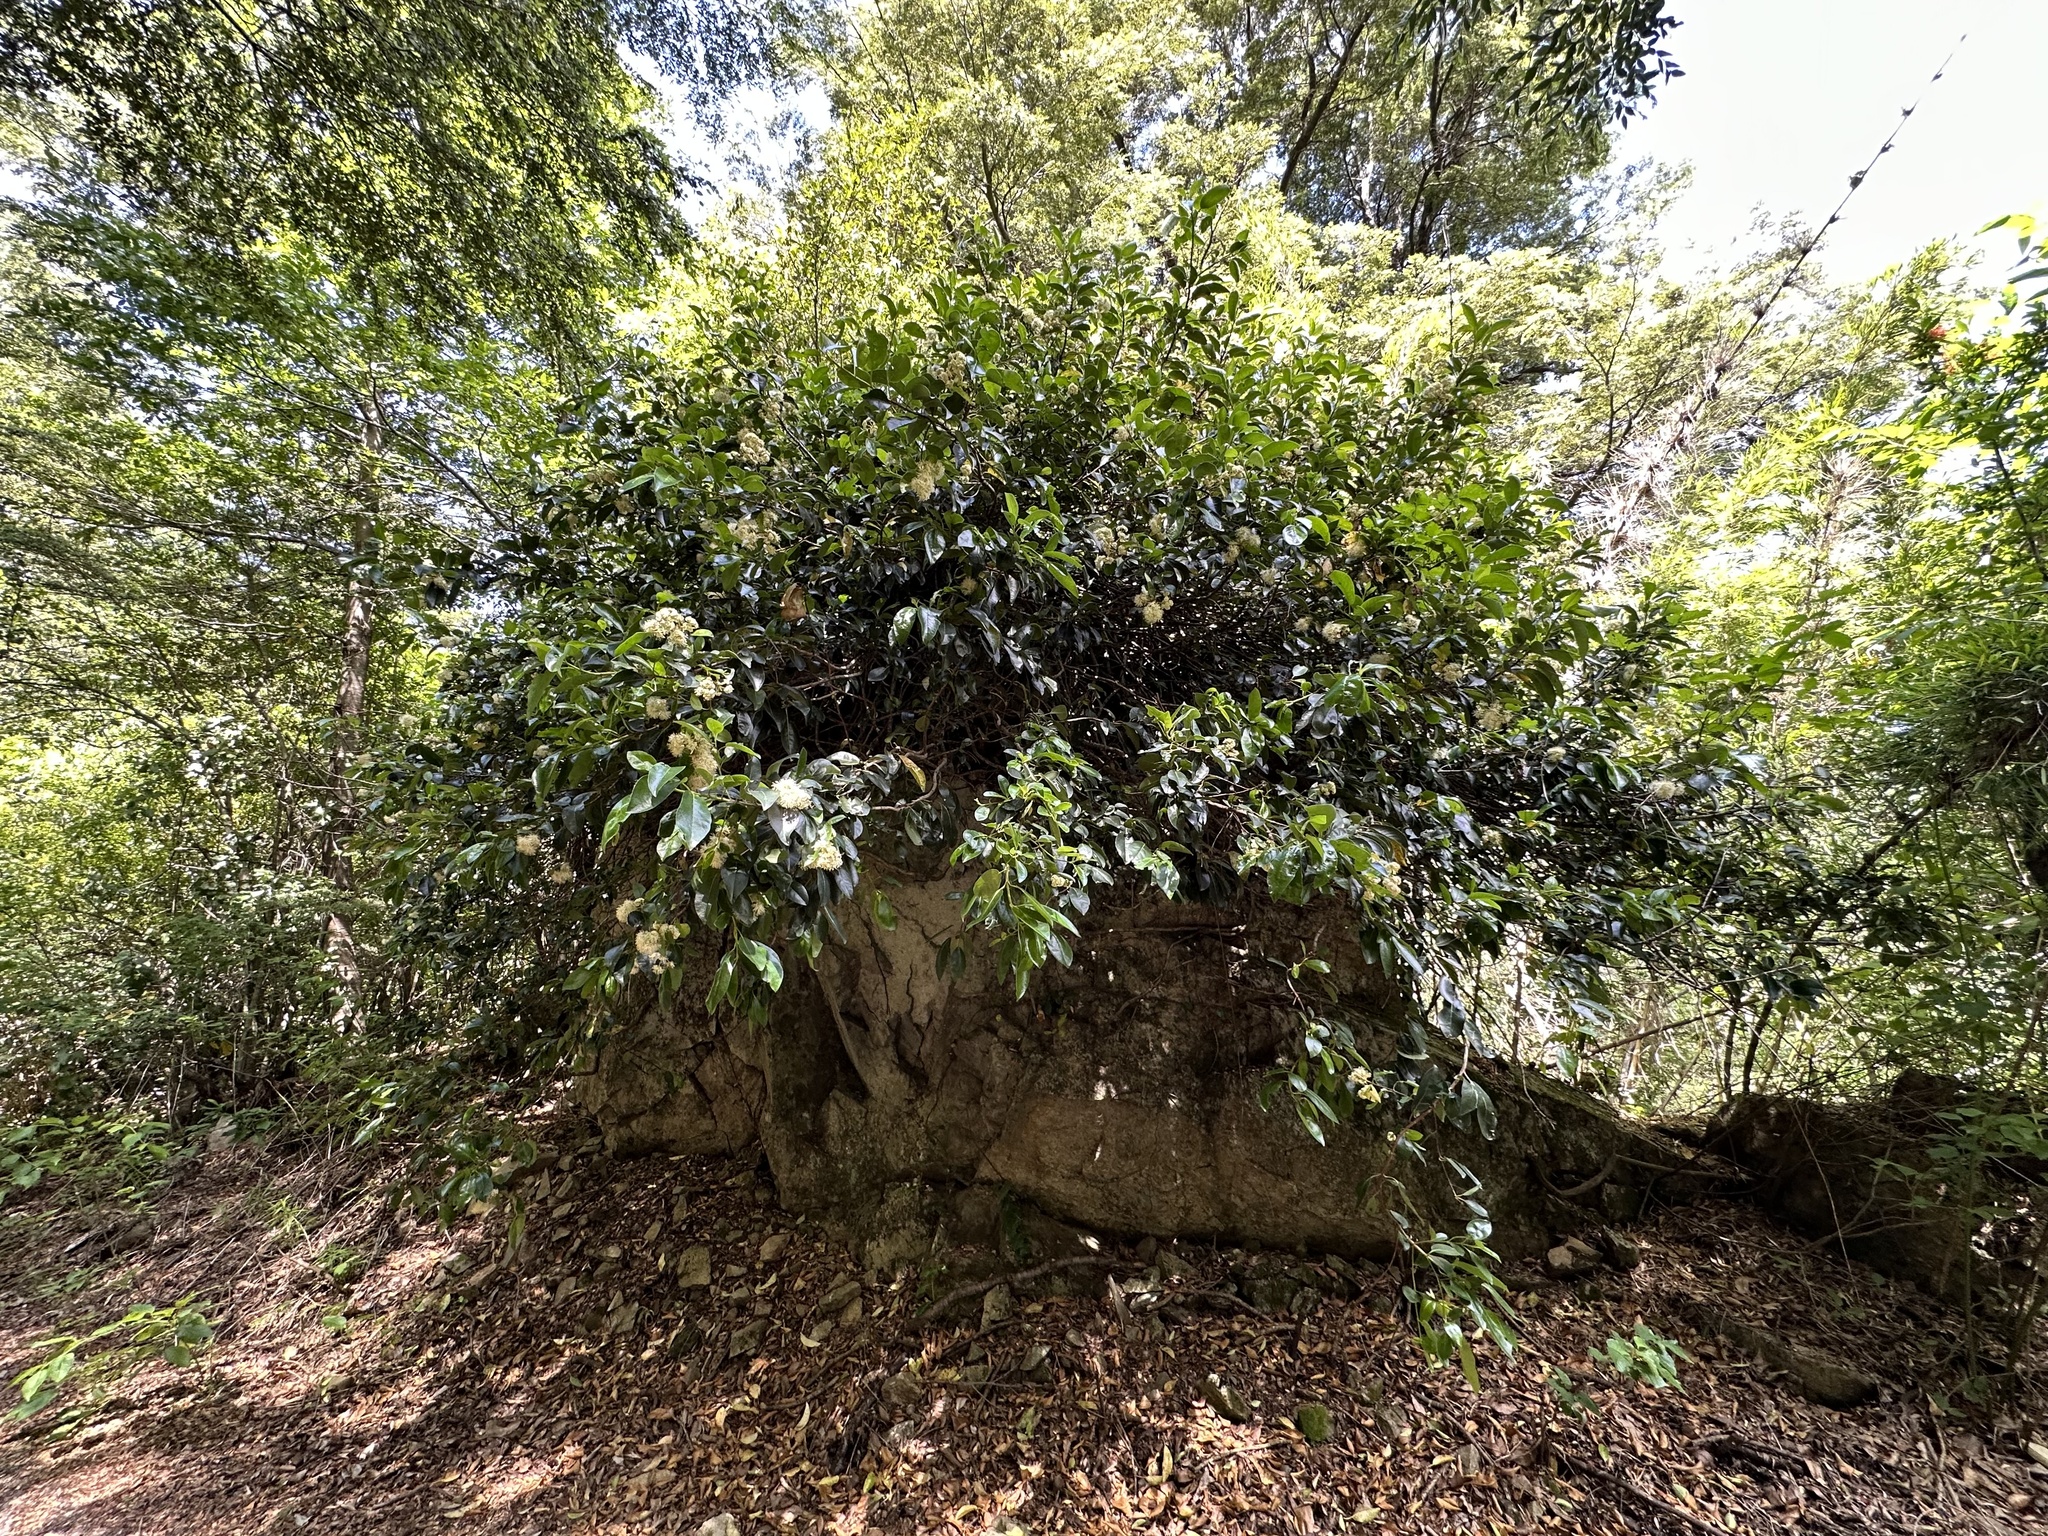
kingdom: Plantae
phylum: Tracheophyta
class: Magnoliopsida
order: Cornales
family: Hydrangeaceae
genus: Hydrangea
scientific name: Hydrangea serratifolia
